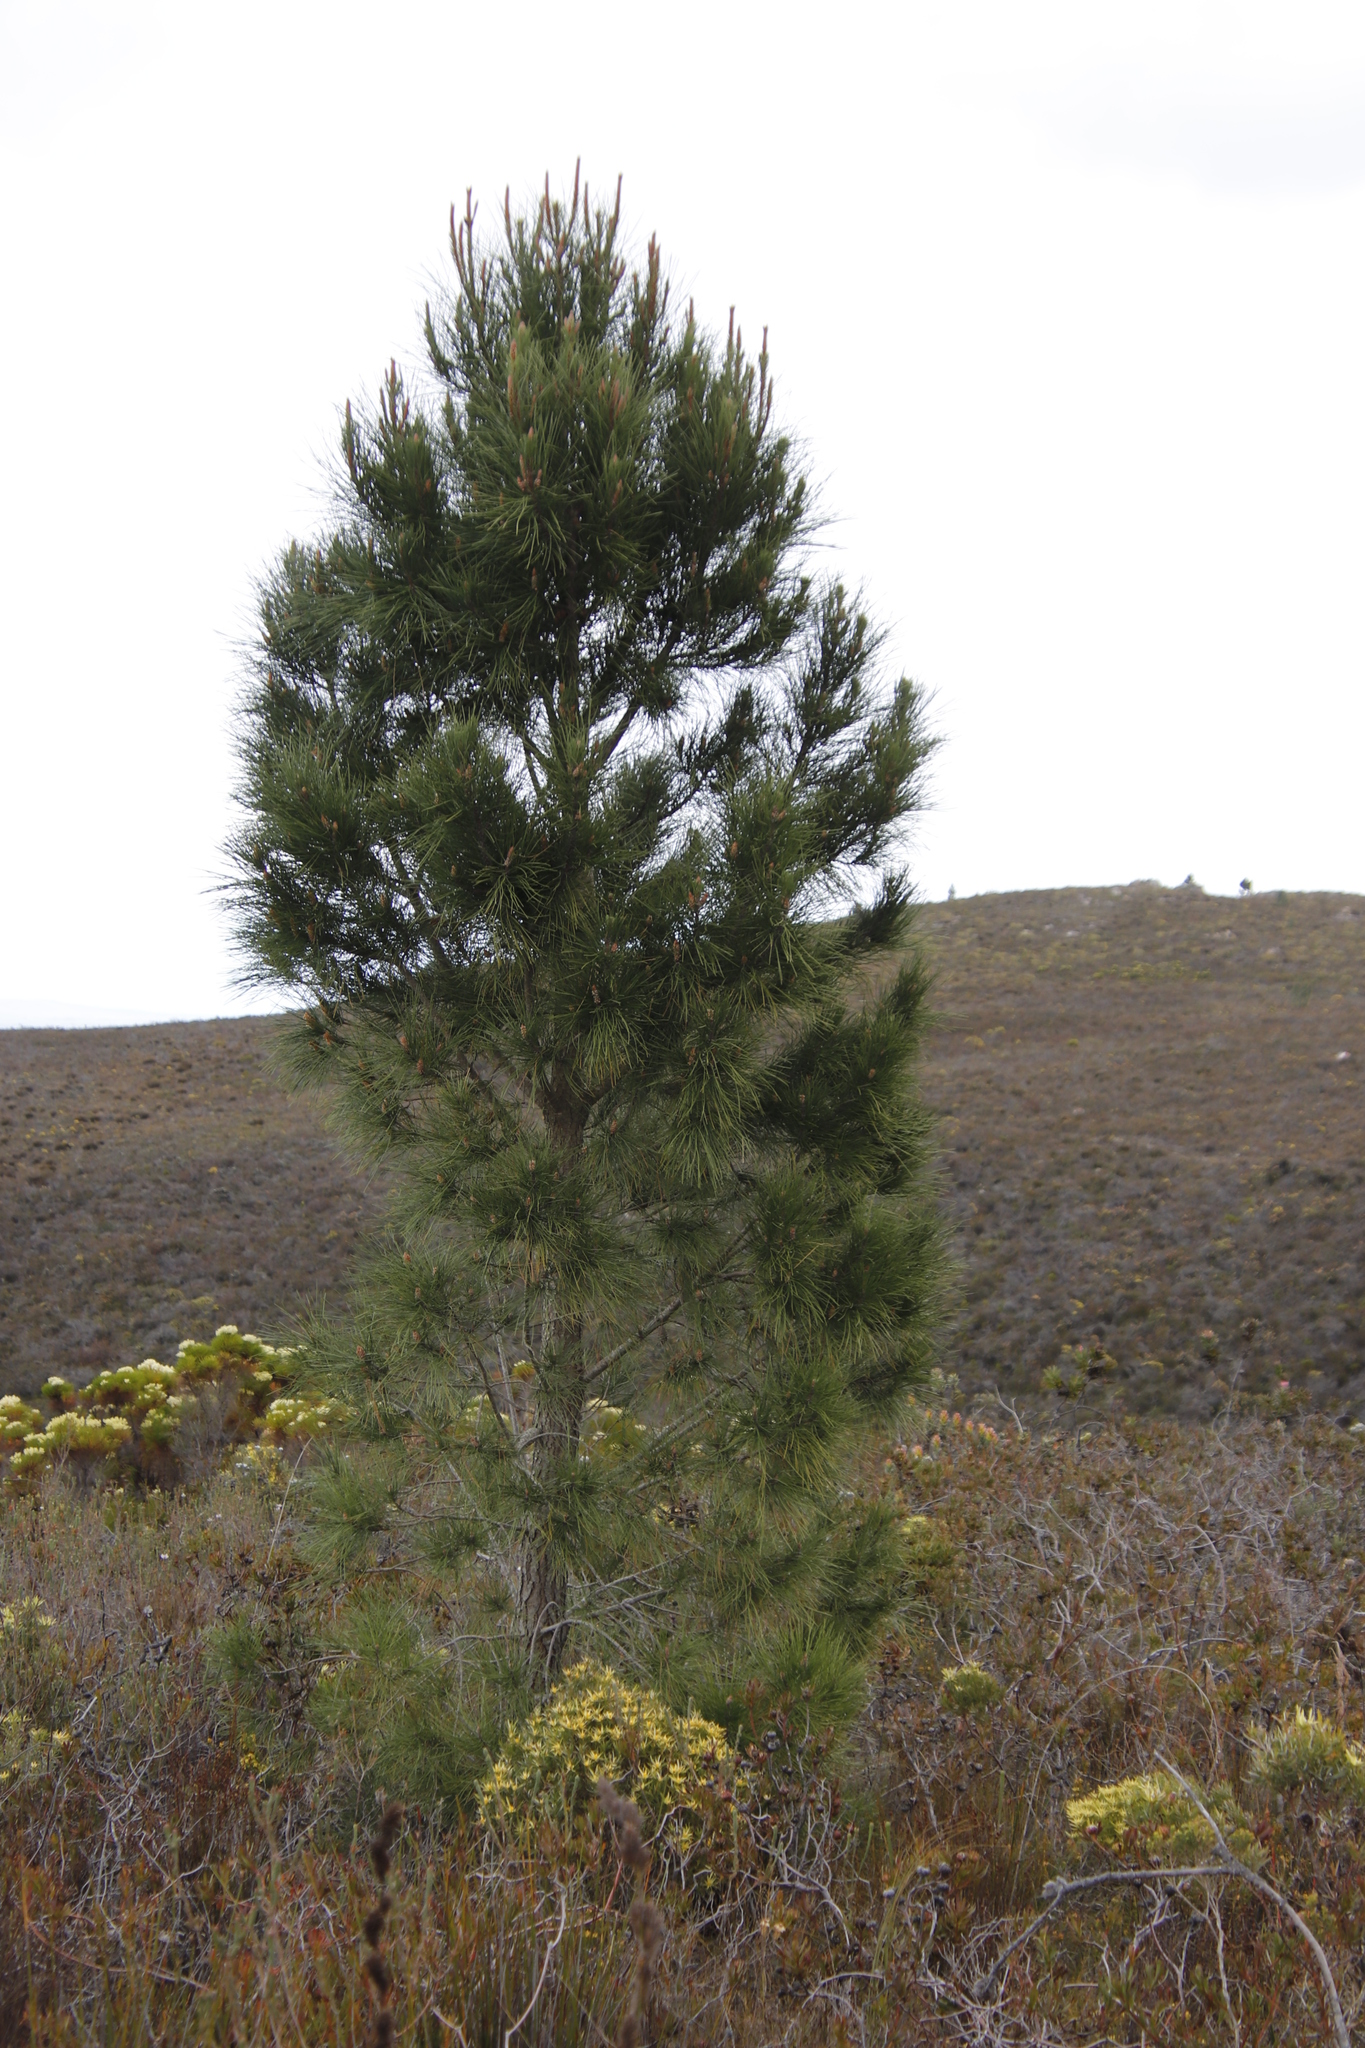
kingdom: Plantae
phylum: Tracheophyta
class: Pinopsida
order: Pinales
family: Pinaceae
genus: Pinus
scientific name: Pinus pinaster
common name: Maritime pine
